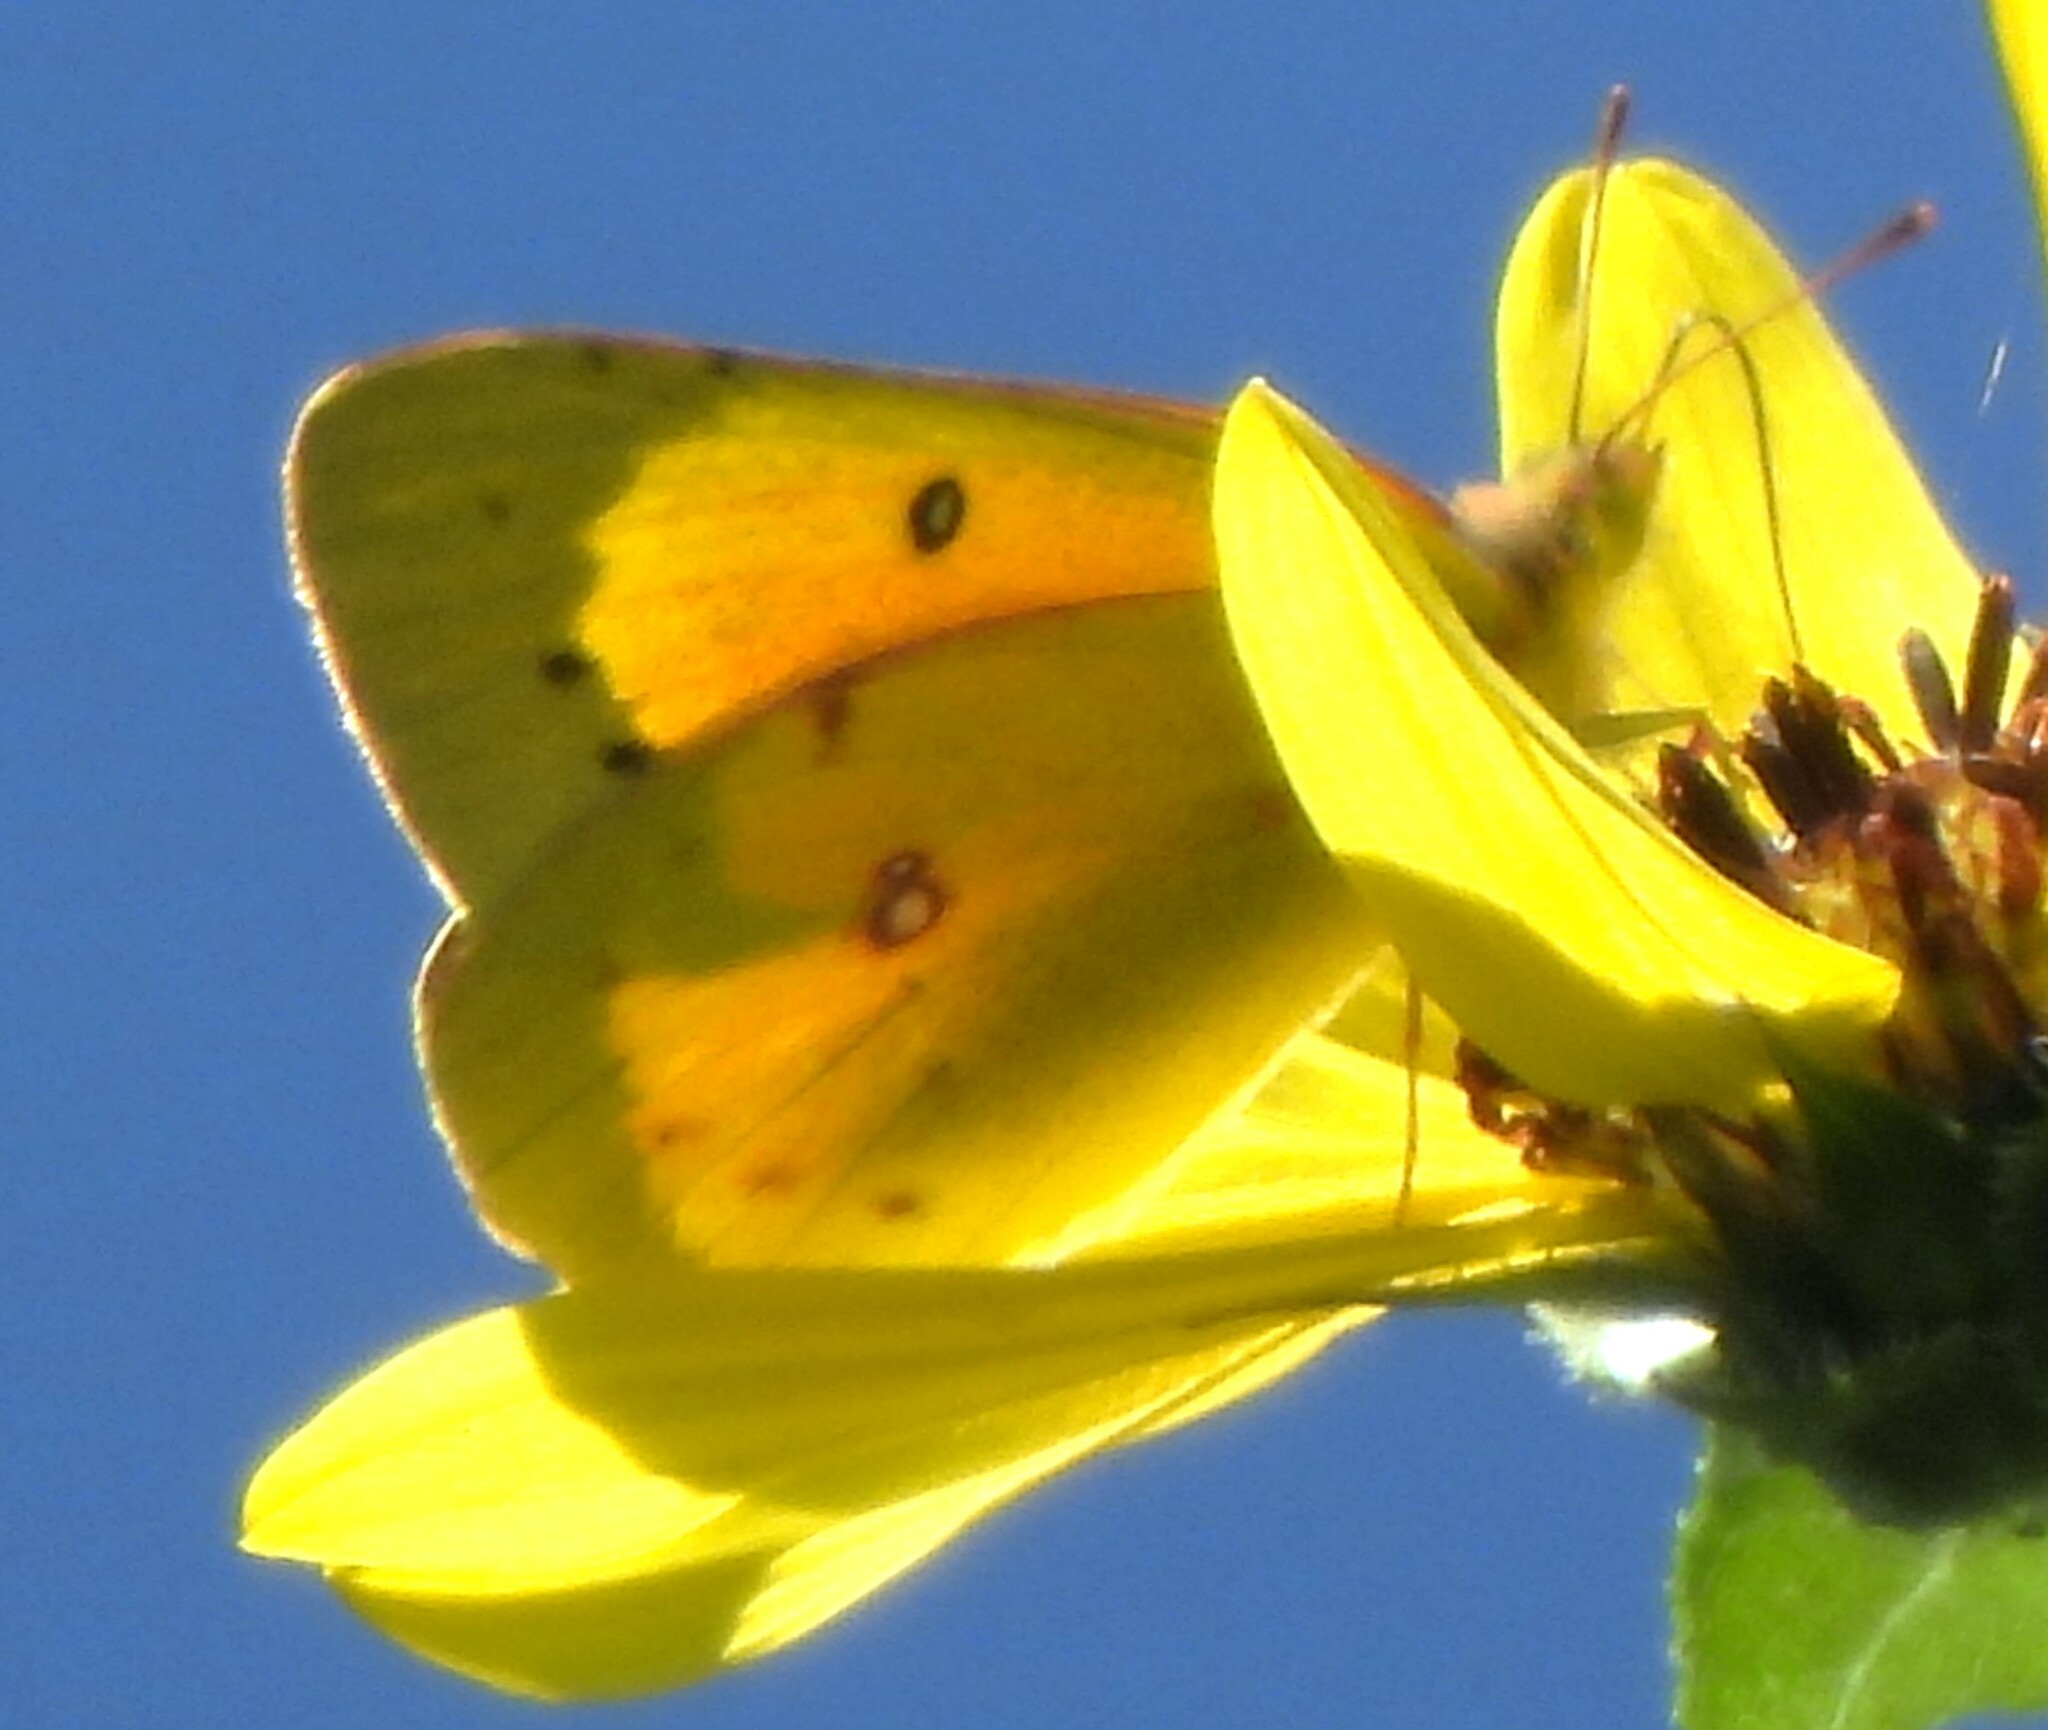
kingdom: Animalia
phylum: Arthropoda
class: Insecta
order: Lepidoptera
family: Pieridae
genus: Colias
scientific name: Colias eurytheme
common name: Alfalfa butterfly
